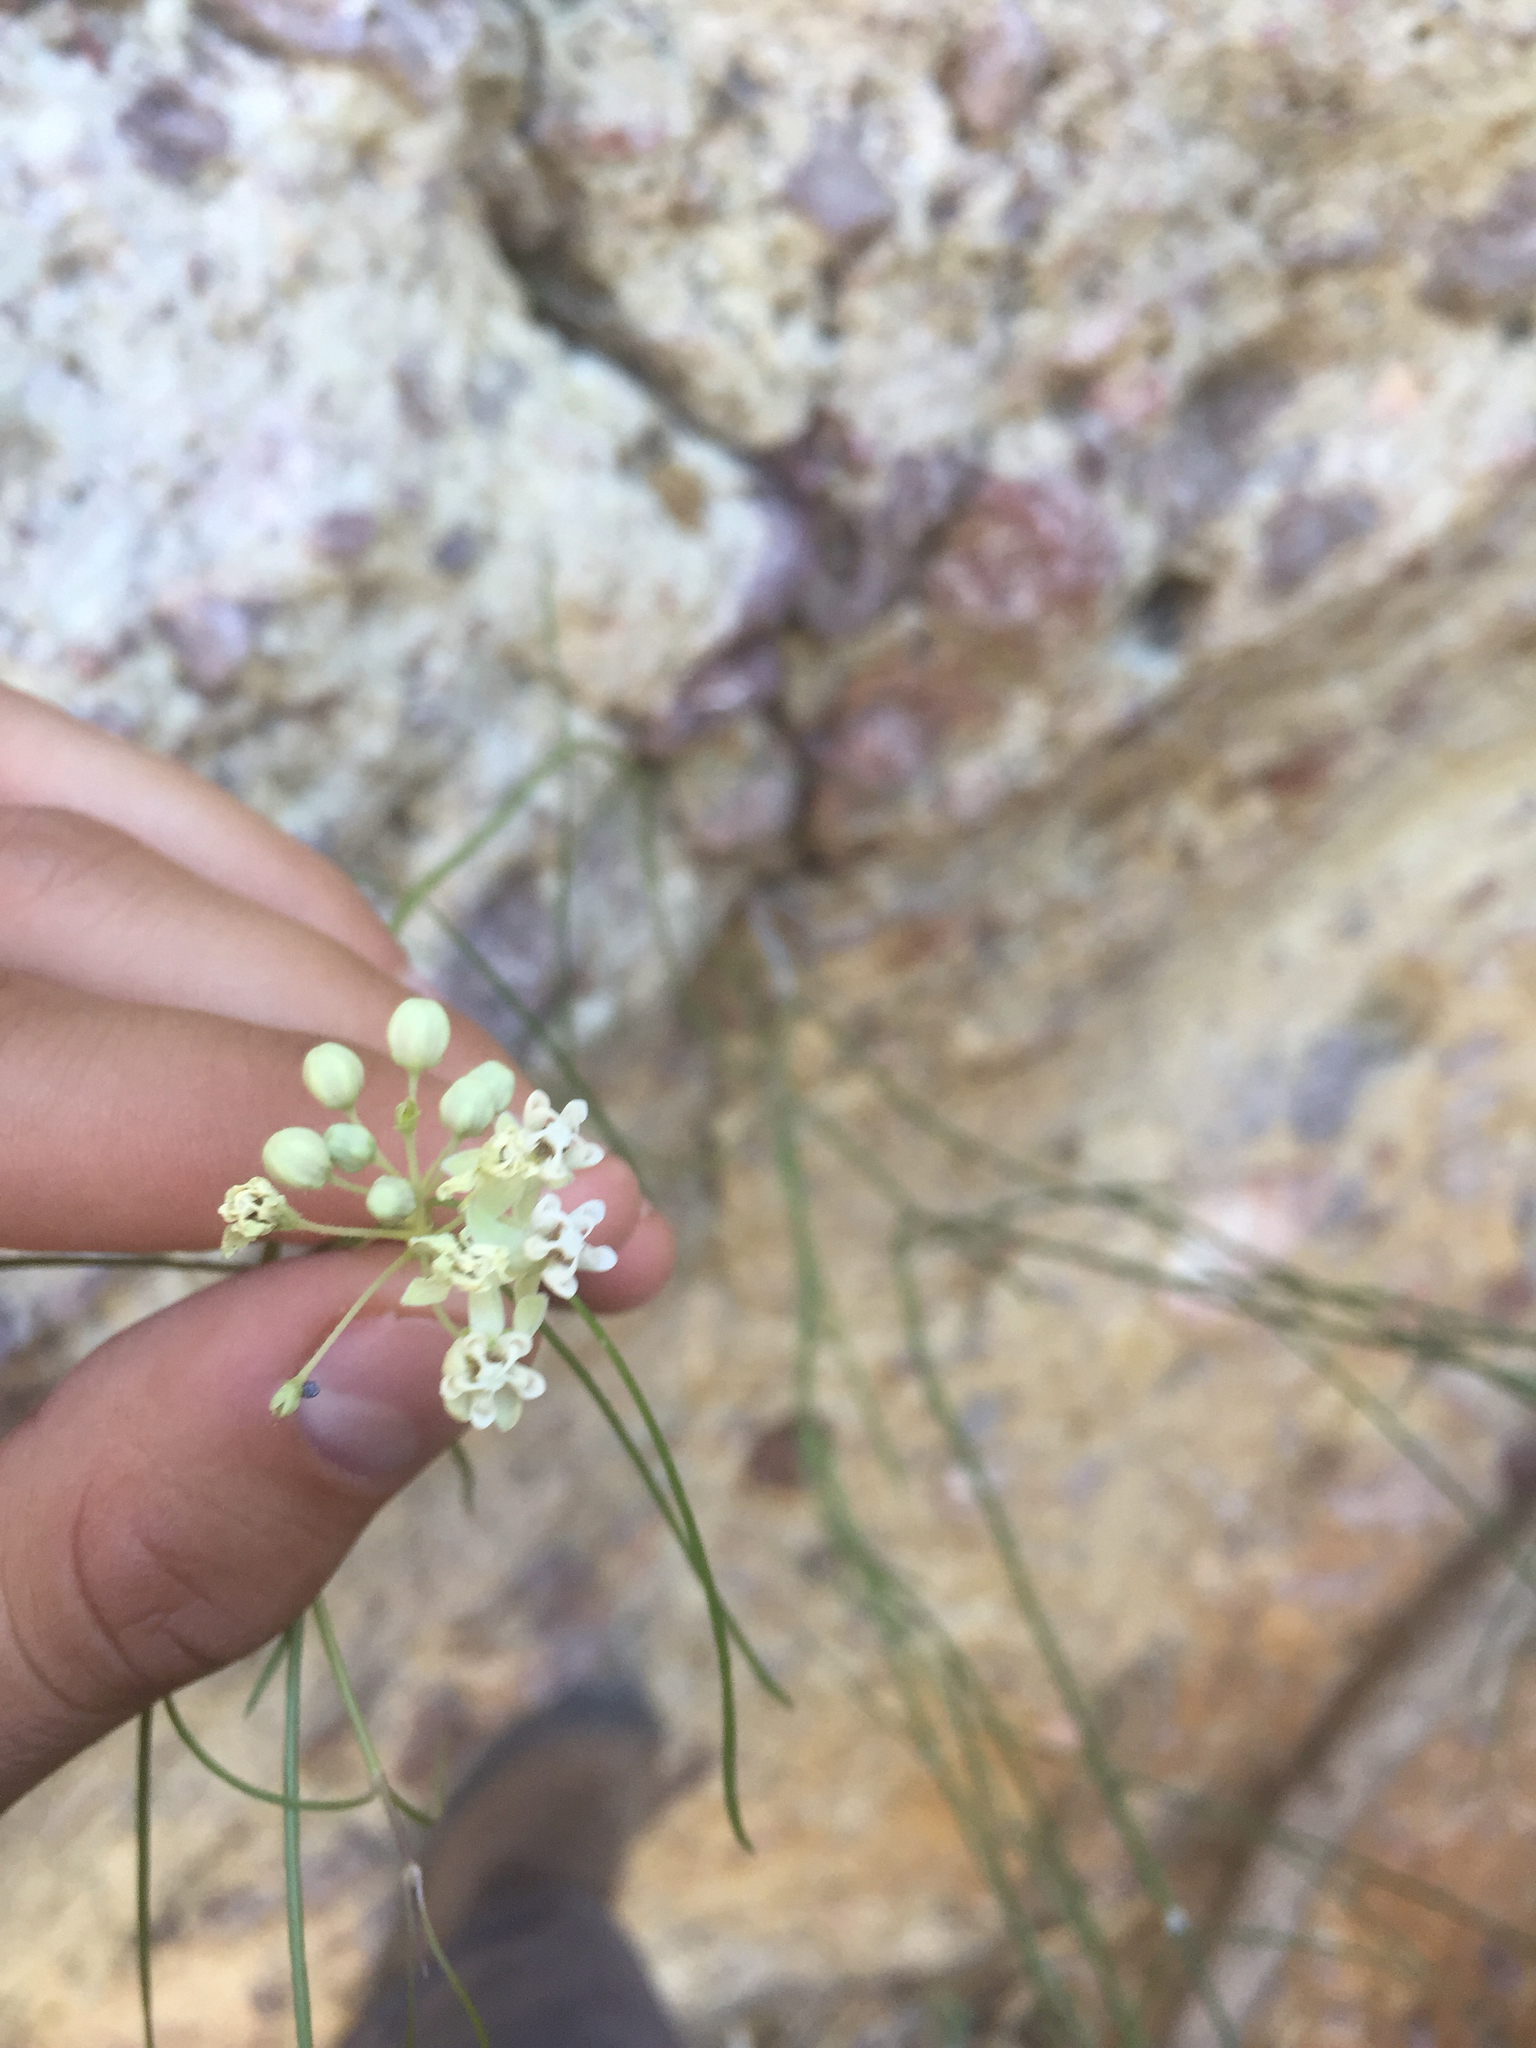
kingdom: Plantae
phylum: Tracheophyta
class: Magnoliopsida
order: Gentianales
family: Apocynaceae
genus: Asclepias
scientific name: Asclepias leptopus
